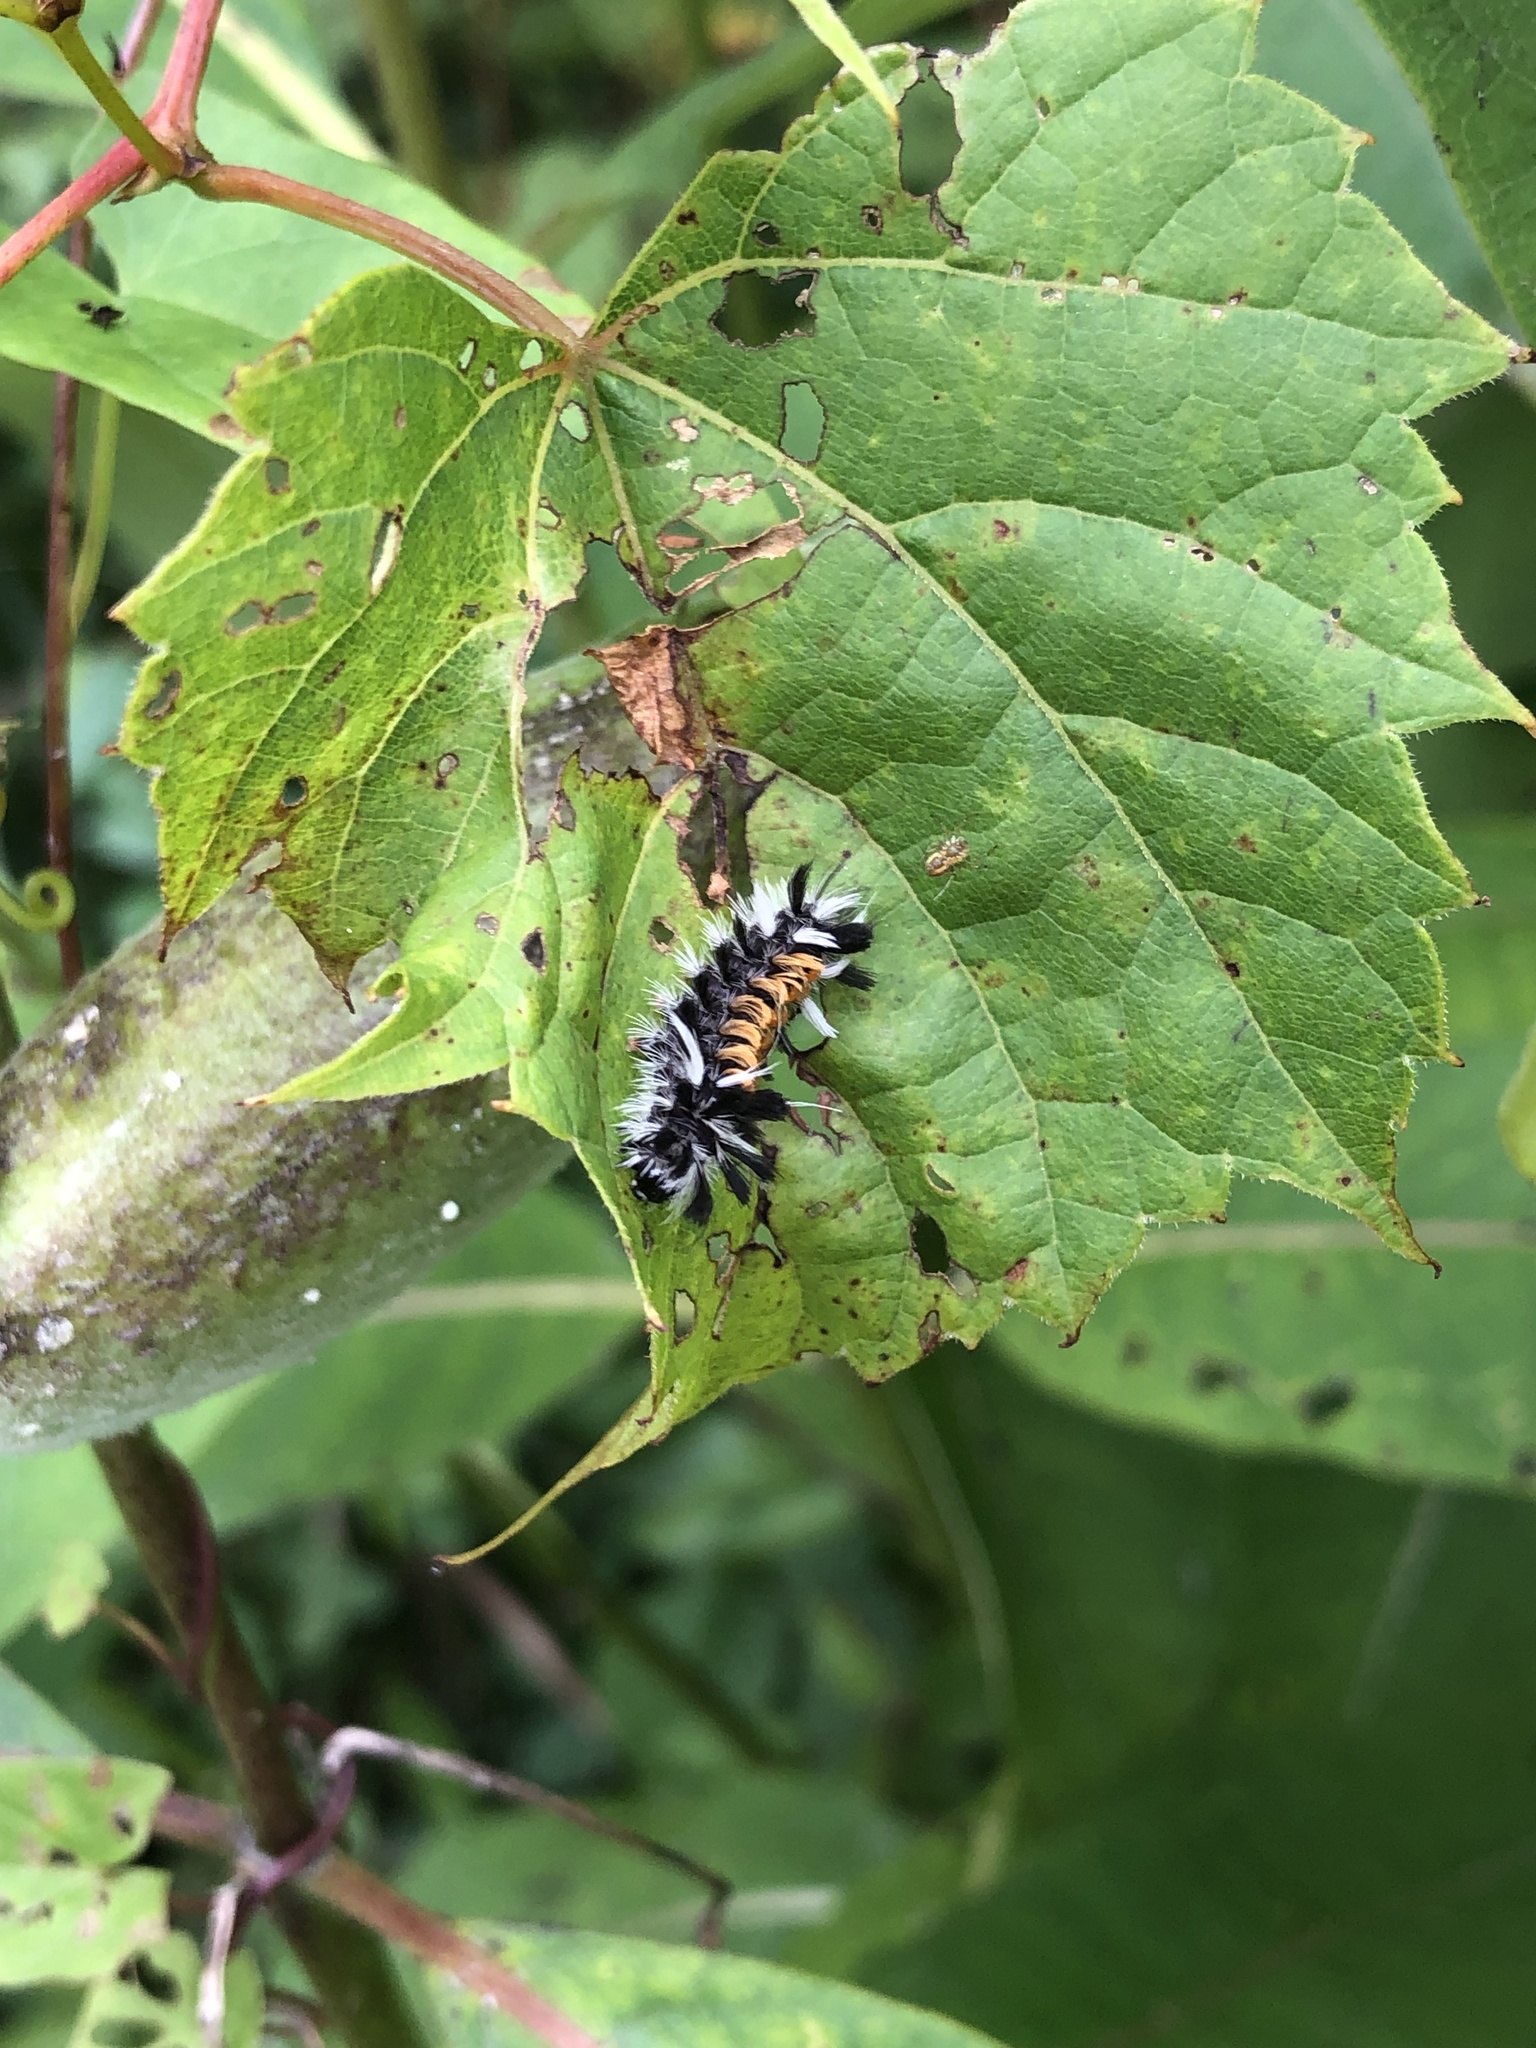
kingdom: Animalia
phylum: Arthropoda
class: Insecta
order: Lepidoptera
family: Erebidae
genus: Euchaetes
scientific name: Euchaetes egle
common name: Milkweed tussock moth
